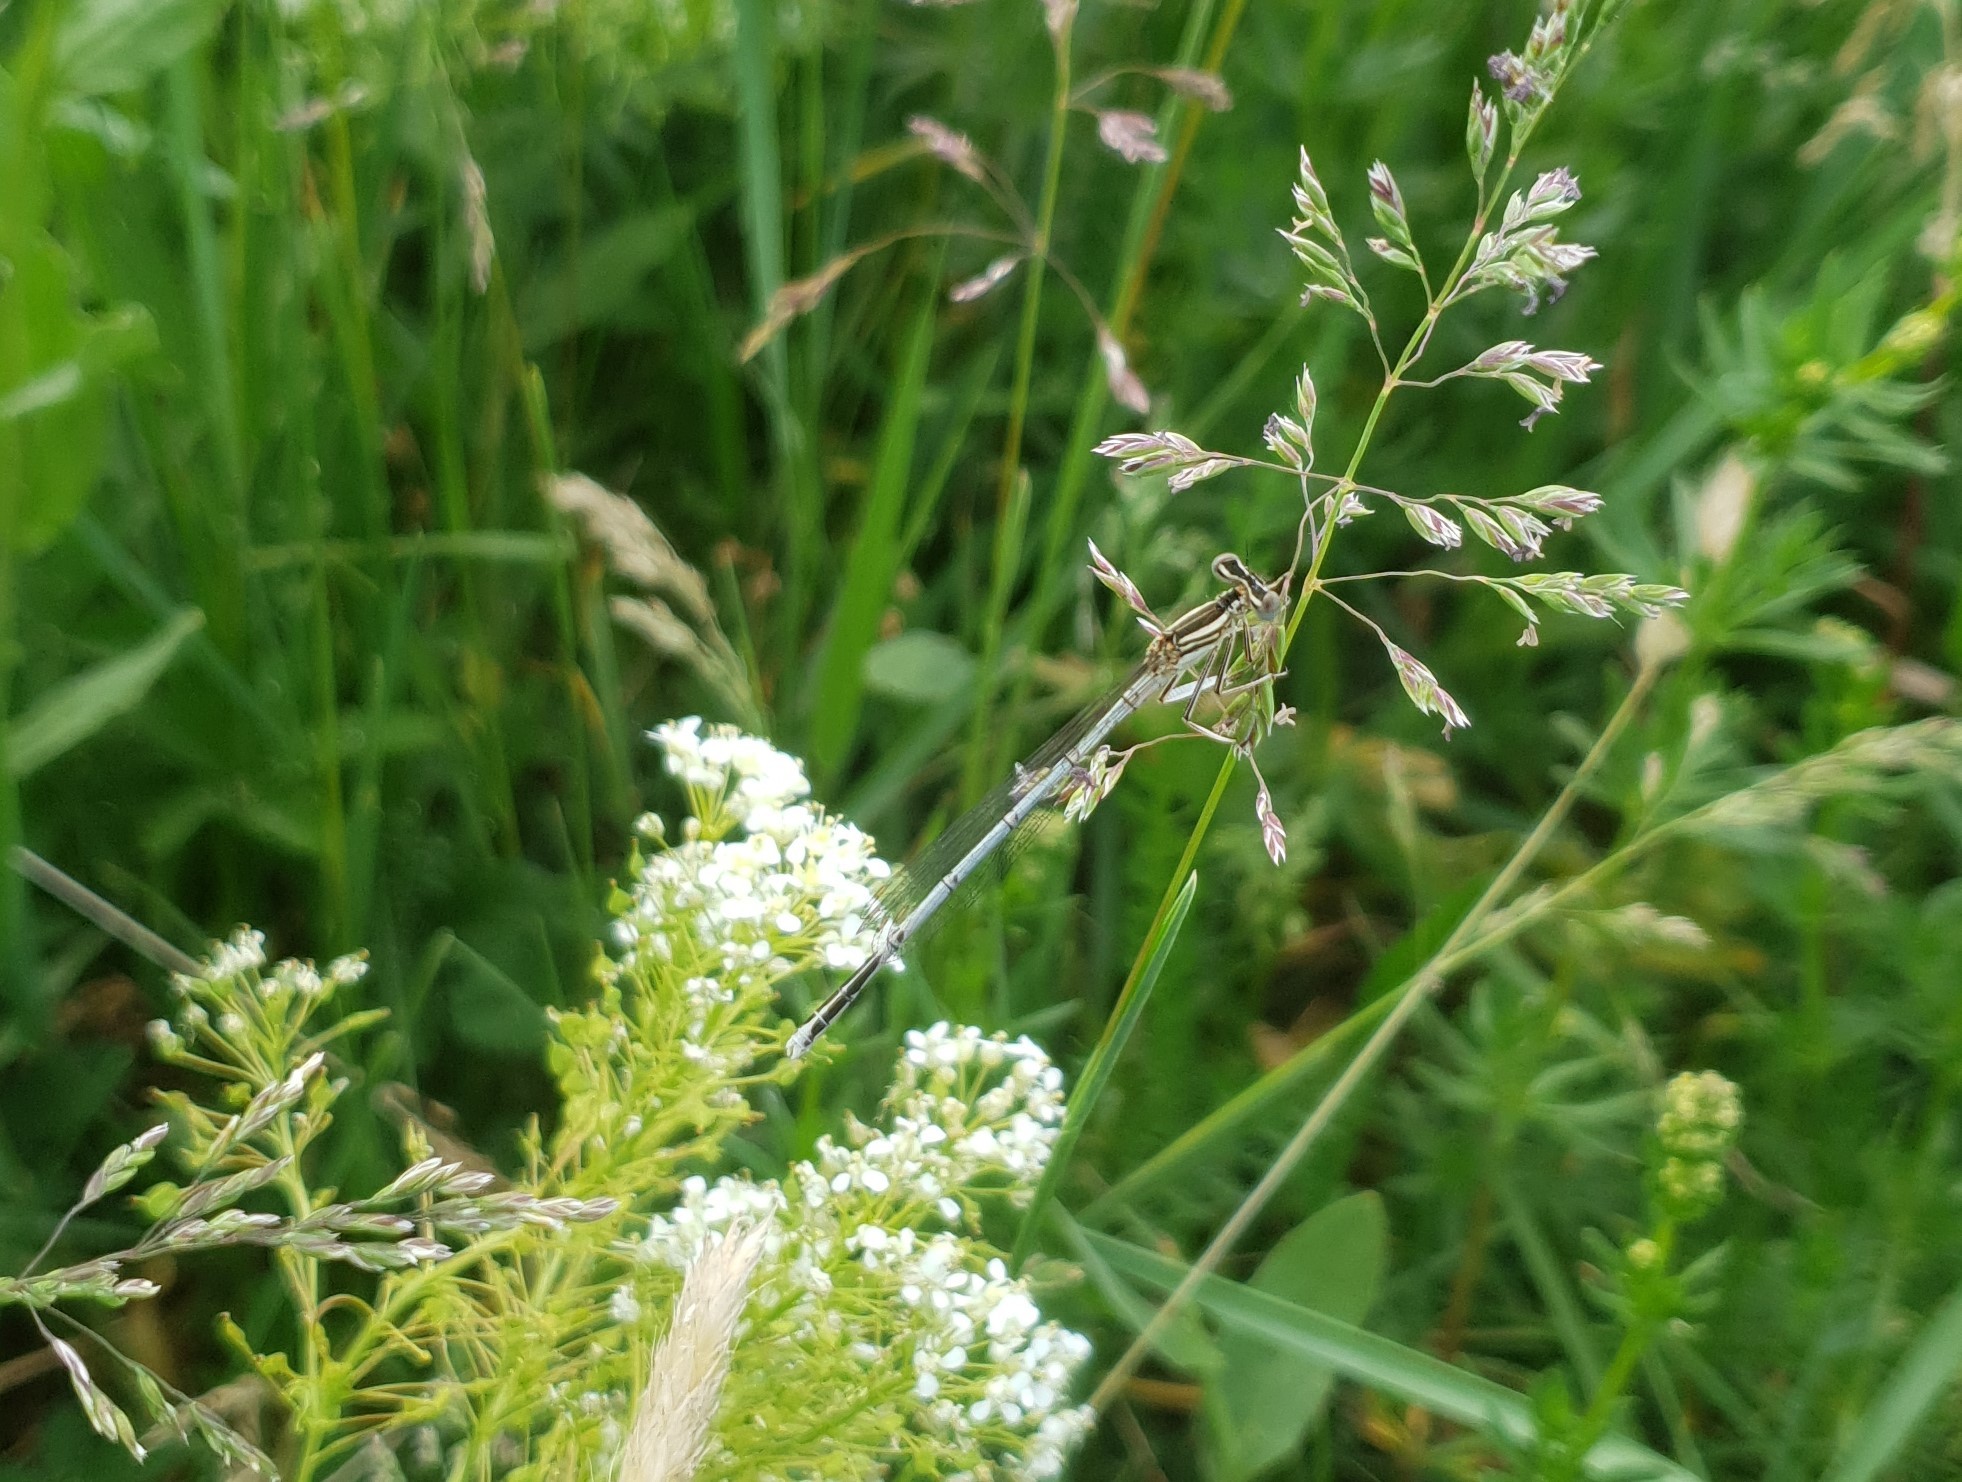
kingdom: Animalia
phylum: Arthropoda
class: Insecta
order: Odonata
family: Platycnemididae
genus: Platycnemis
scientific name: Platycnemis pennipes
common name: White-legged damselfly
